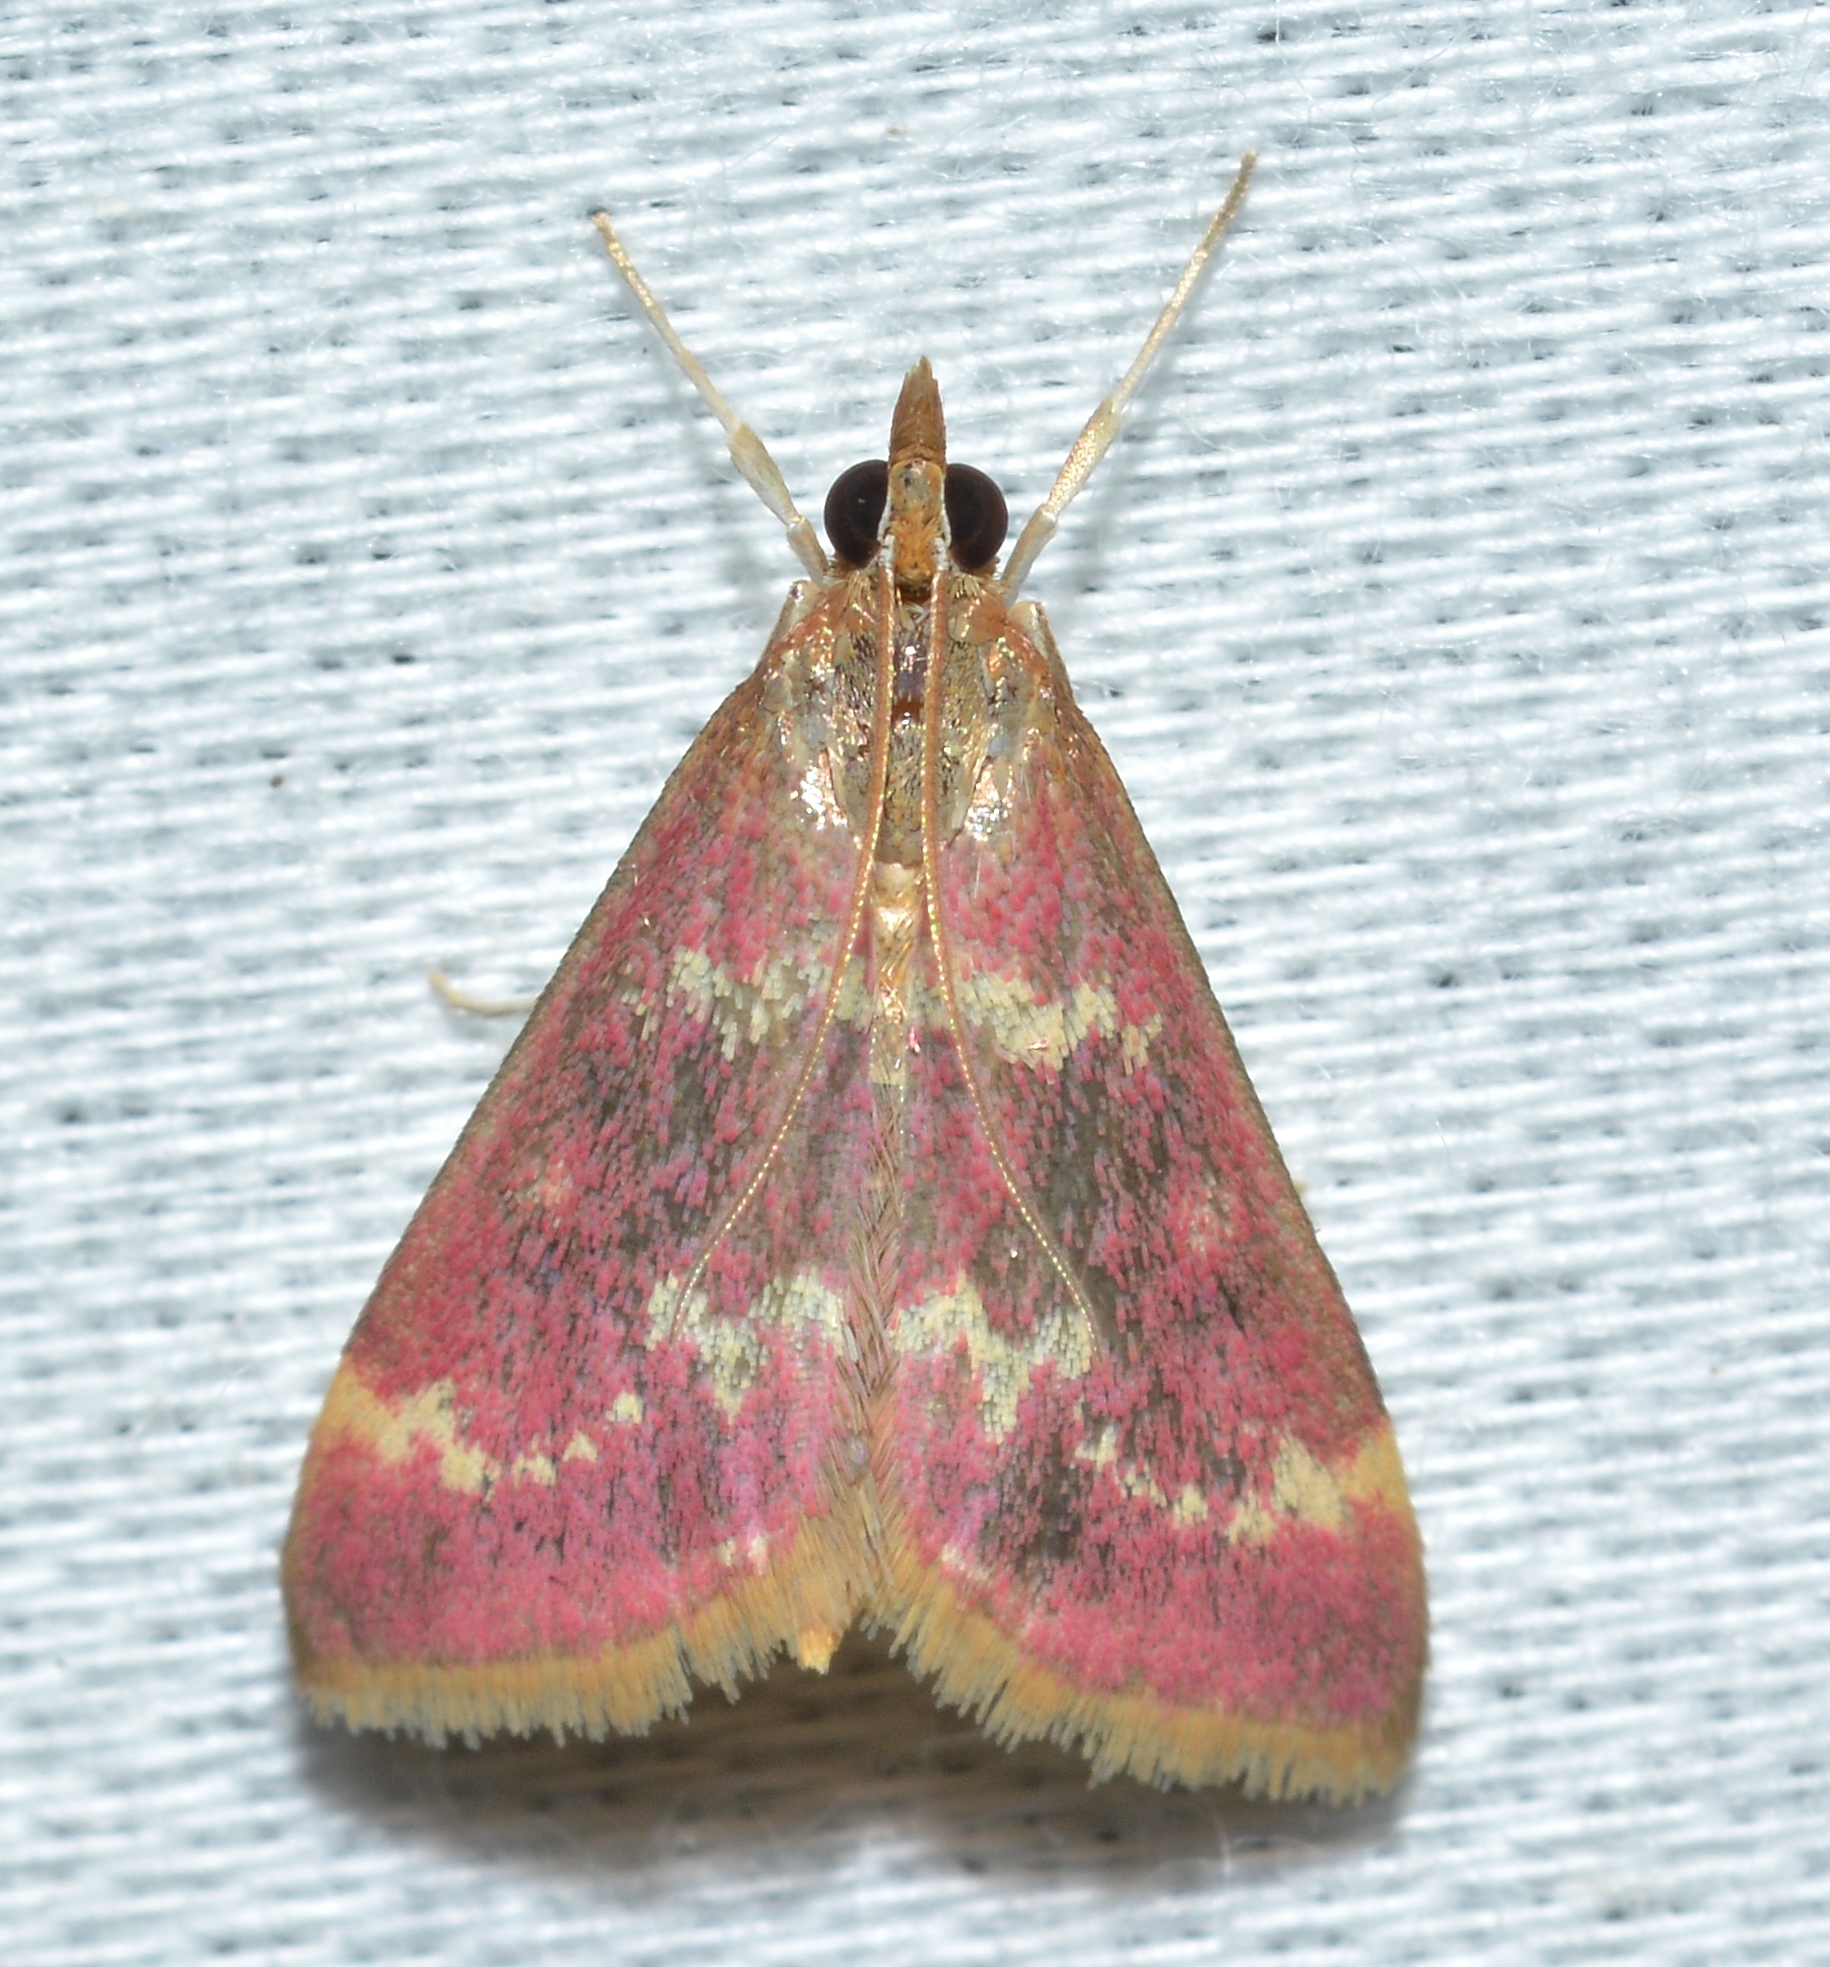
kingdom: Animalia
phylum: Arthropoda
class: Insecta
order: Lepidoptera
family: Crambidae
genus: Pyrausta
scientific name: Pyrausta signatalis
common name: Raspberry pyrausta moth
